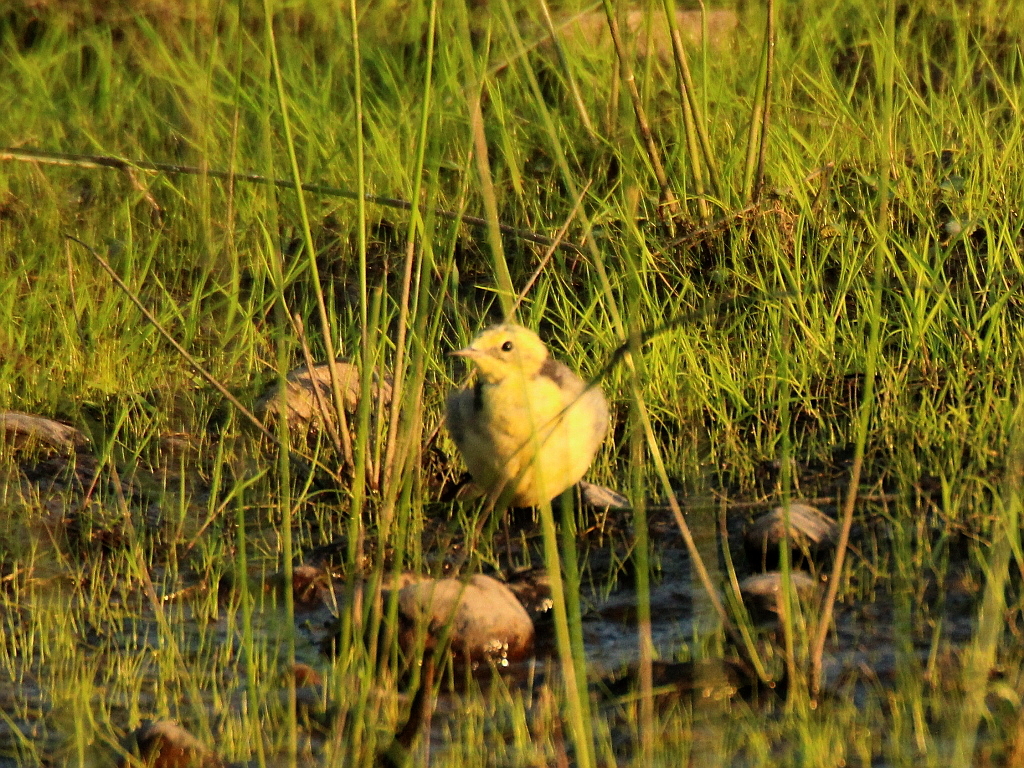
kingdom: Animalia
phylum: Chordata
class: Aves
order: Passeriformes
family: Motacillidae
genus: Motacilla
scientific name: Motacilla citreola
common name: Citrine wagtail
